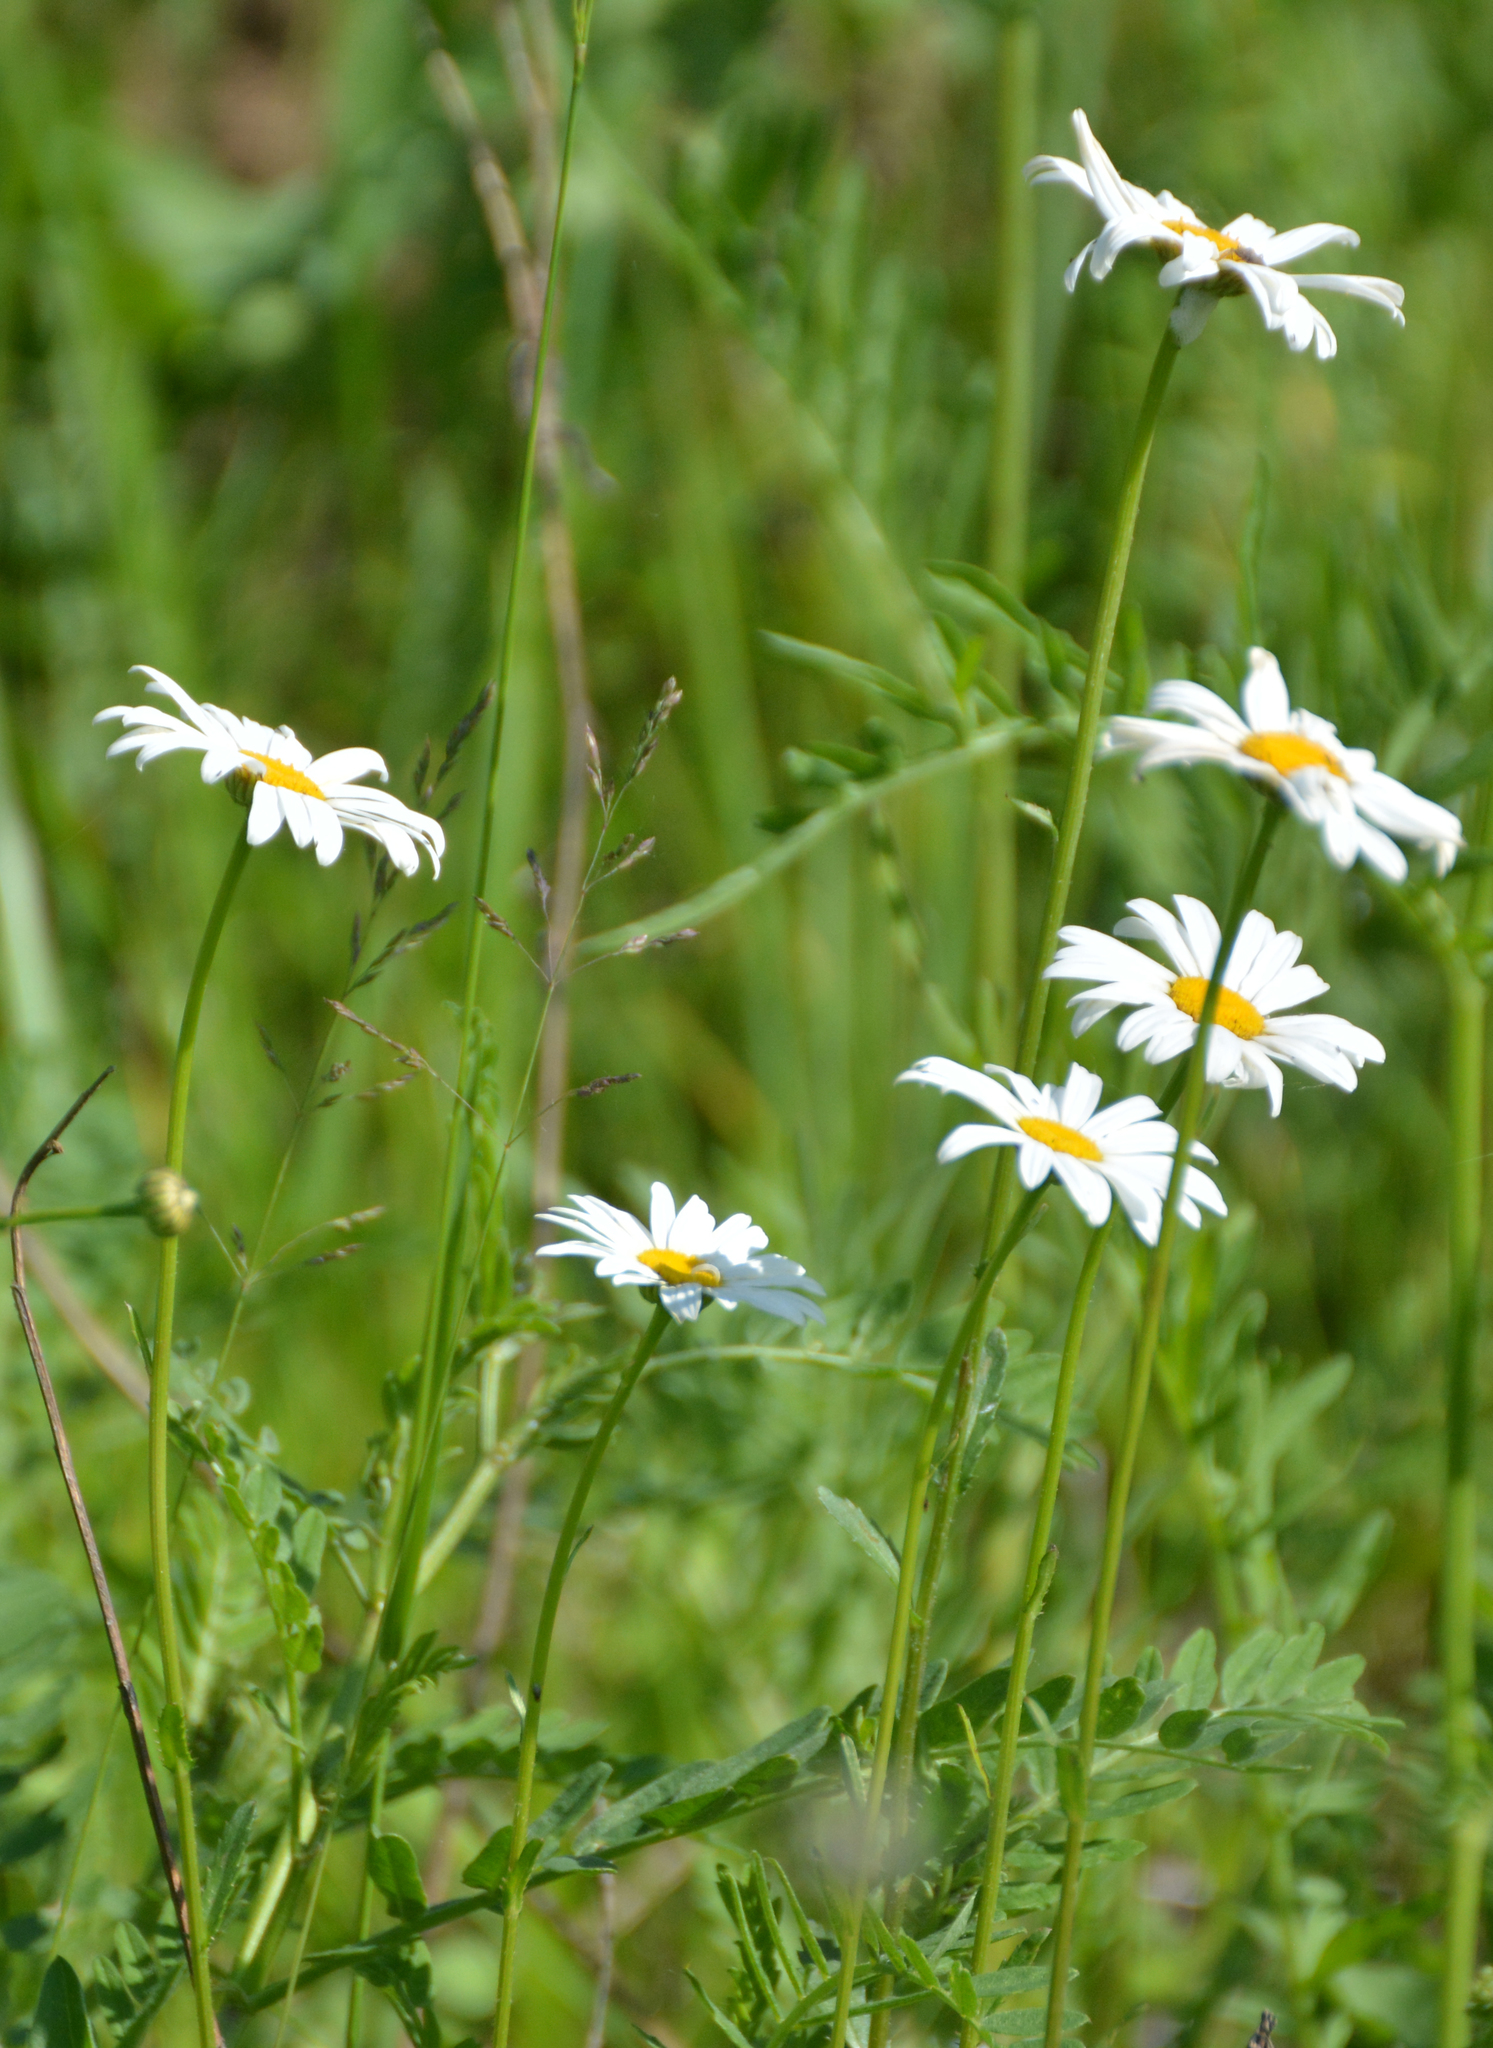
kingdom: Plantae
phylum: Tracheophyta
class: Magnoliopsida
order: Asterales
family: Asteraceae
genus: Leucanthemum
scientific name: Leucanthemum vulgare
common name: Oxeye daisy
